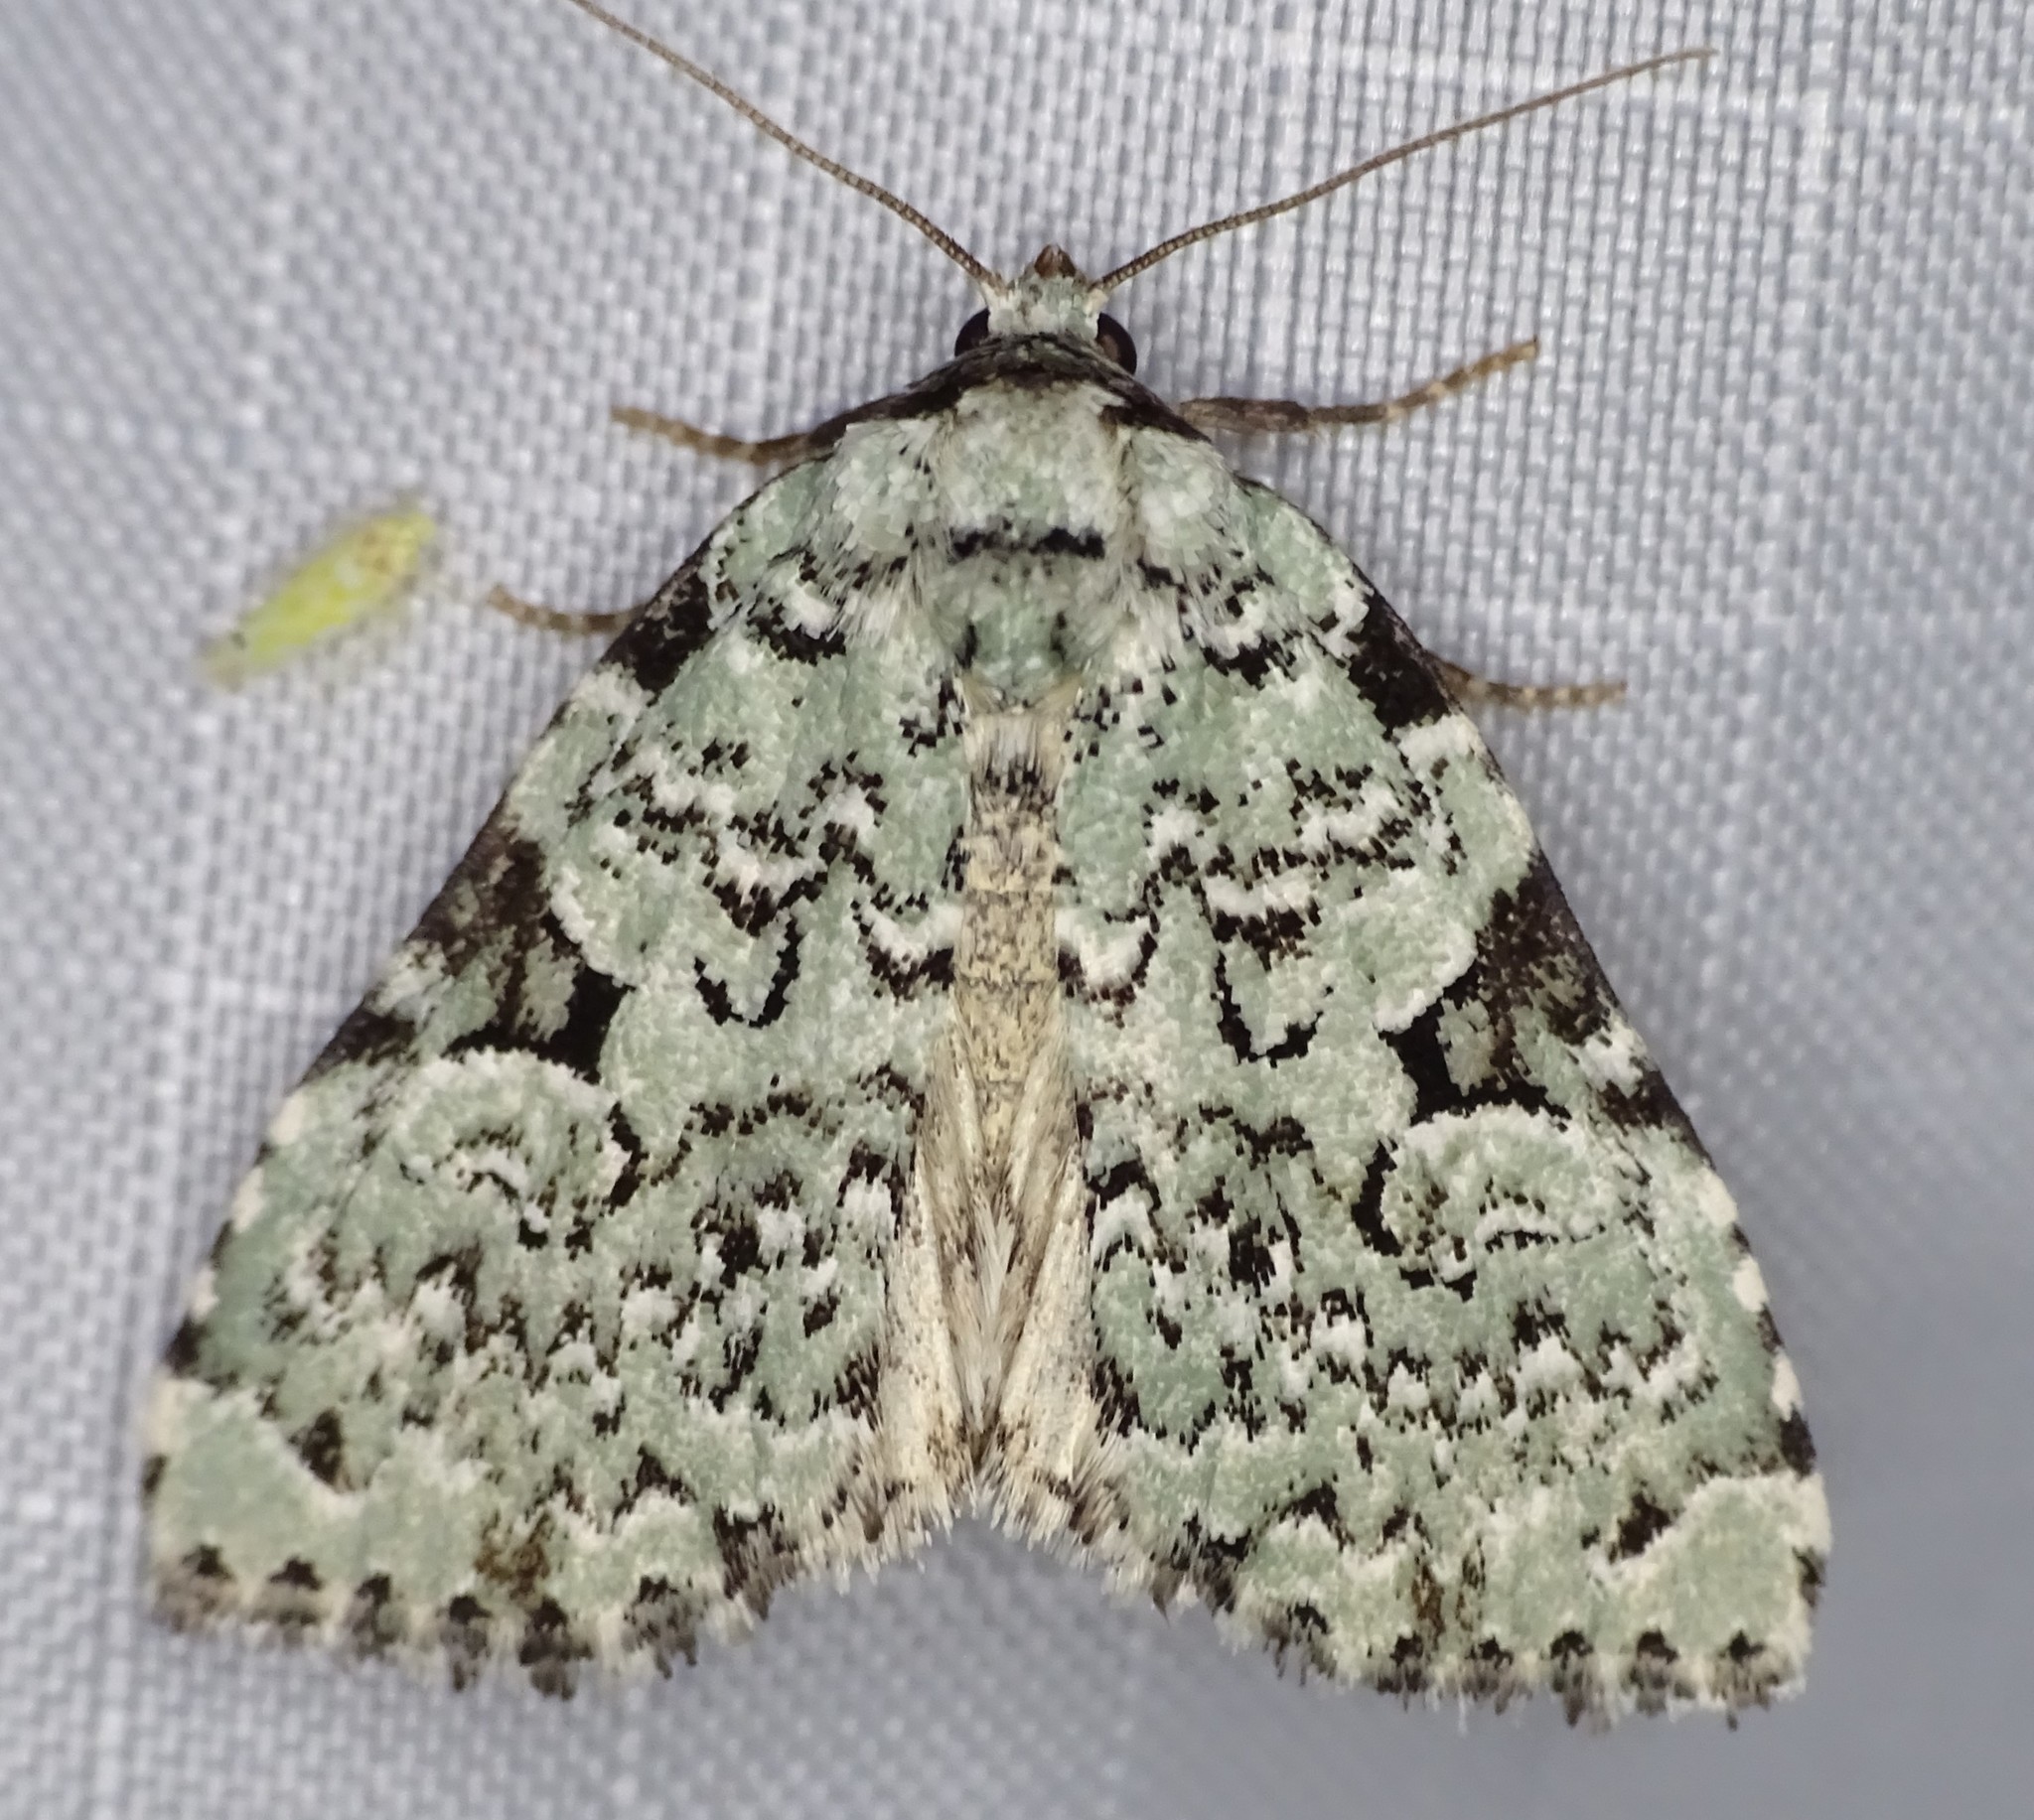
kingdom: Animalia
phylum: Arthropoda
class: Insecta
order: Lepidoptera
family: Noctuidae
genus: Leuconycta
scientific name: Leuconycta diphteroides
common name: Green leuconycta moth
